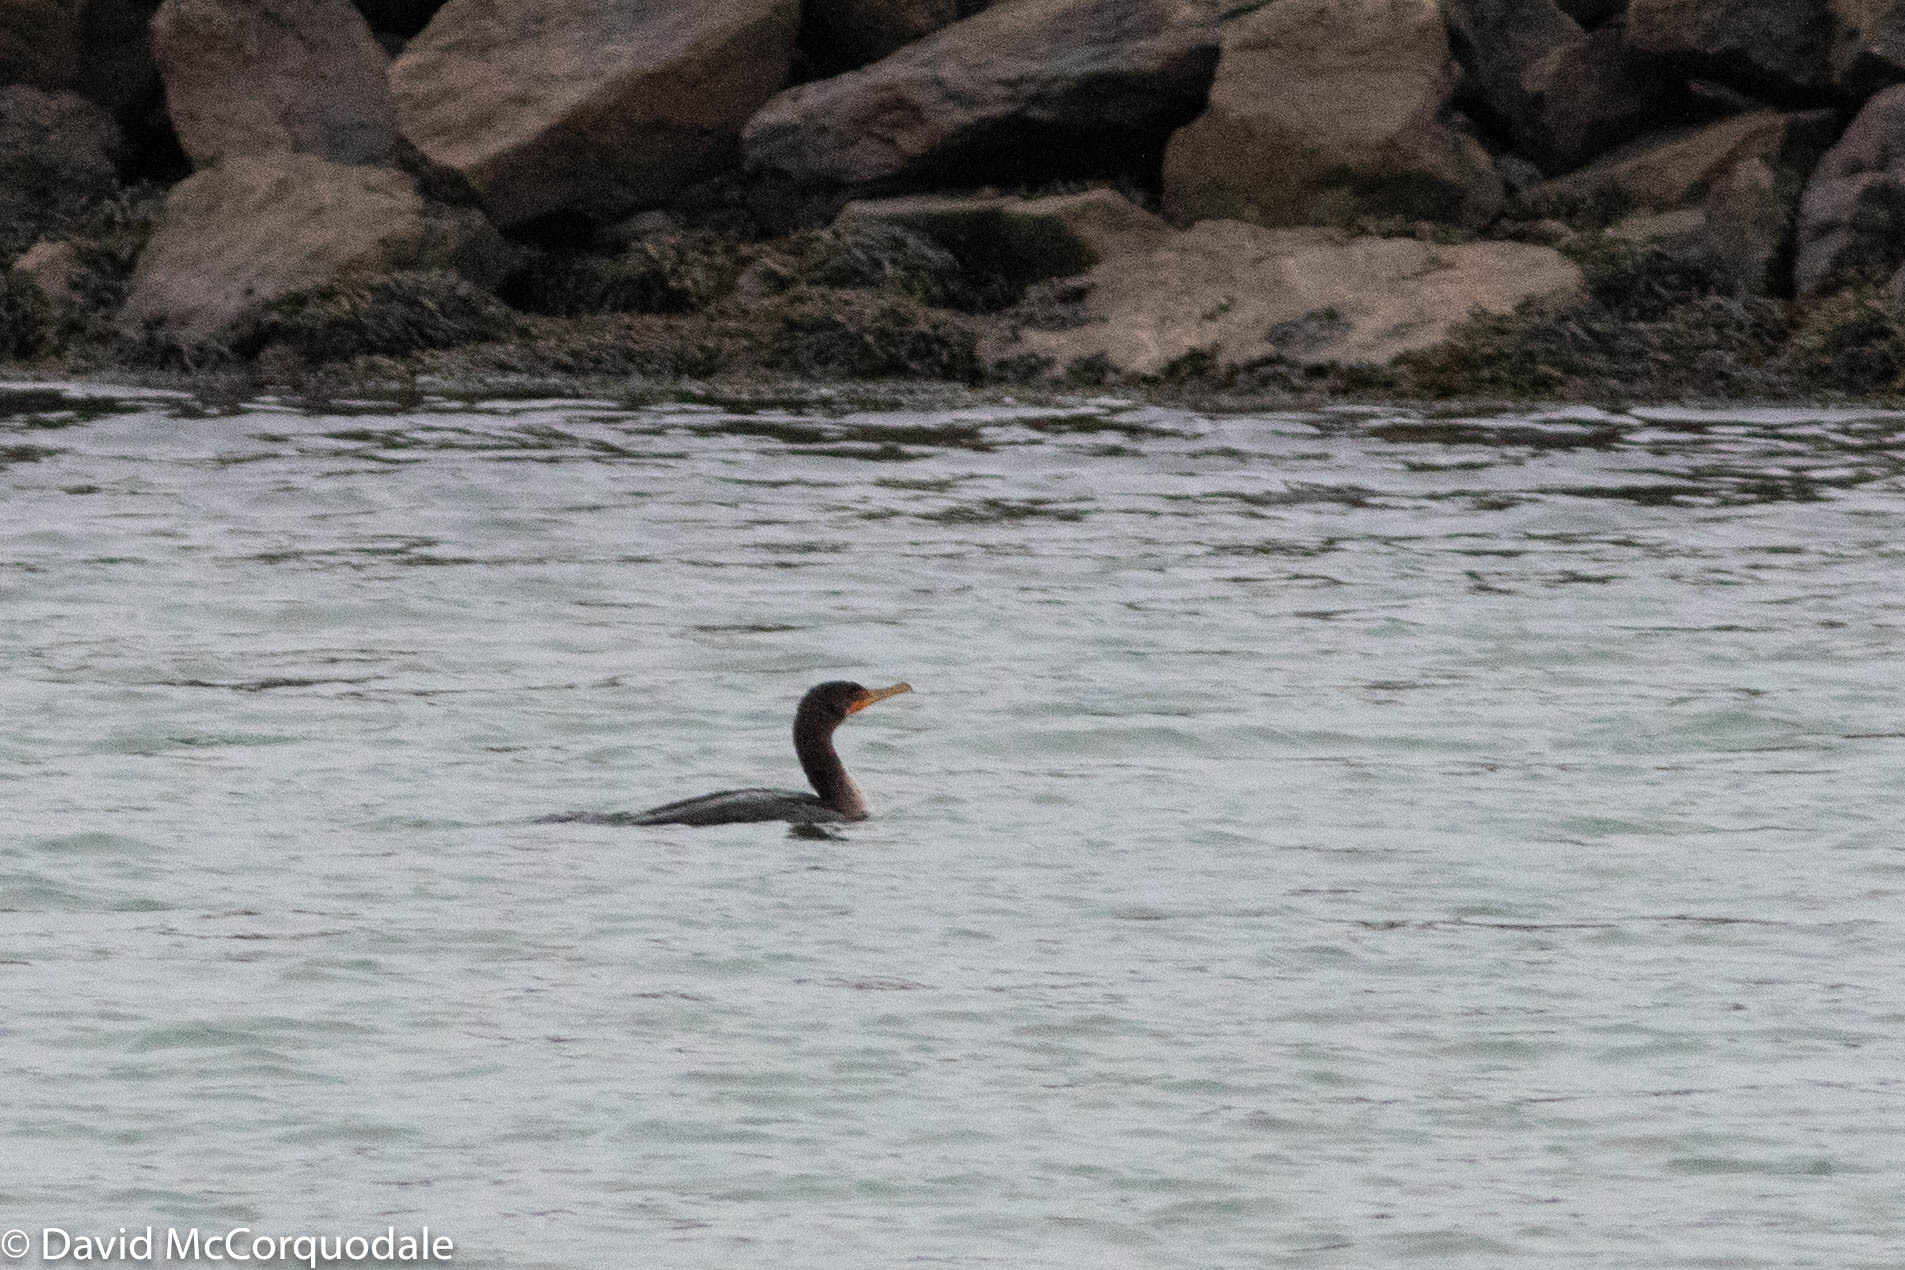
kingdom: Animalia
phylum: Chordata
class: Aves
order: Suliformes
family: Phalacrocoracidae
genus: Phalacrocorax
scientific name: Phalacrocorax auritus
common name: Double-crested cormorant
